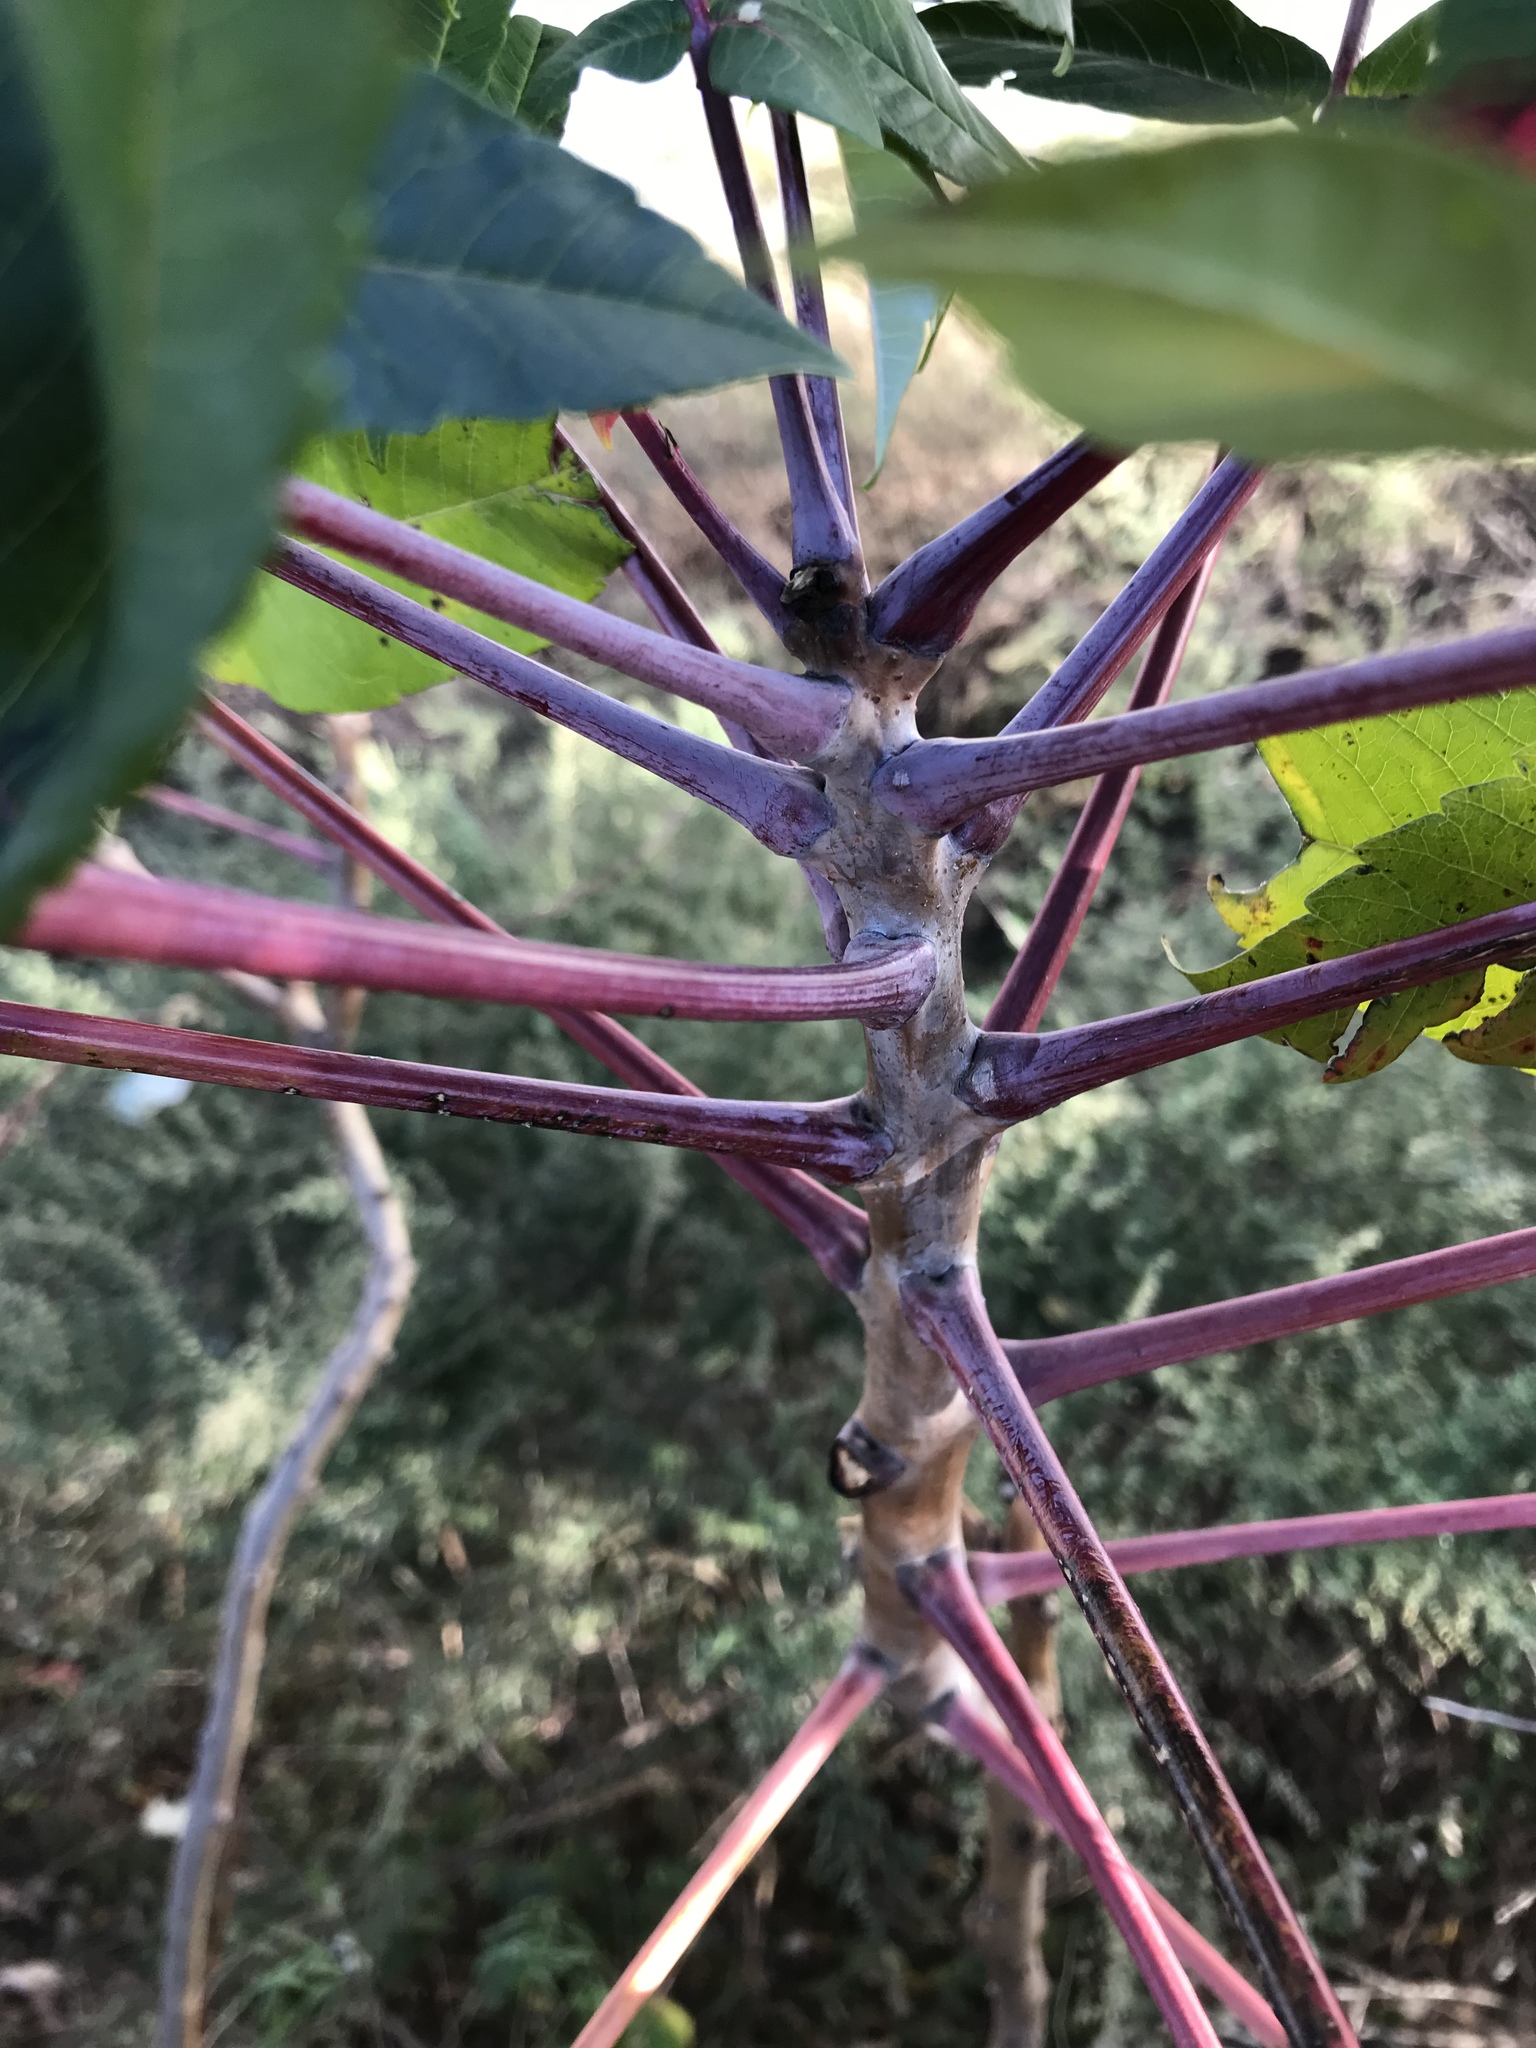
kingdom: Plantae
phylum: Tracheophyta
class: Magnoliopsida
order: Sapindales
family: Anacardiaceae
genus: Rhus
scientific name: Rhus glabra
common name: Scarlet sumac
